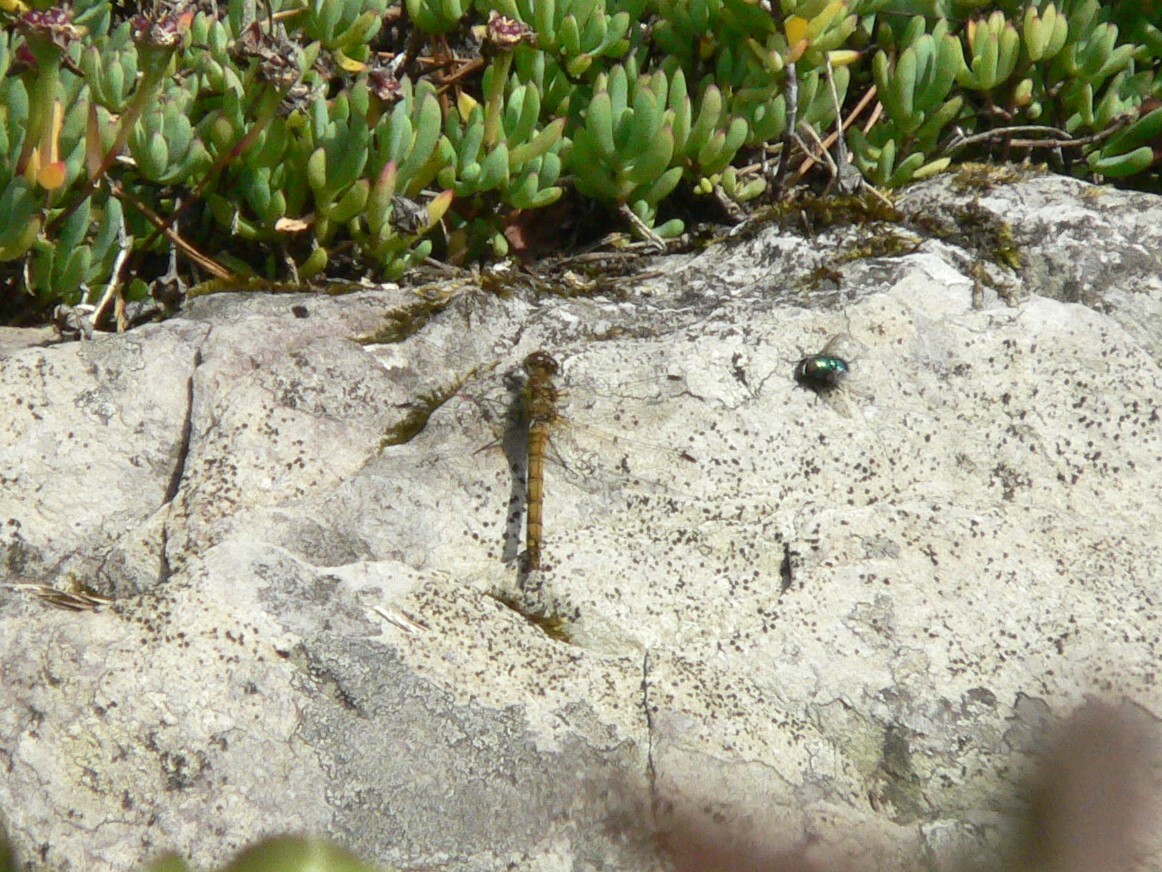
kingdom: Animalia
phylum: Arthropoda
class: Insecta
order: Odonata
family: Libellulidae
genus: Sympetrum
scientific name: Sympetrum striolatum
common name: Common darter
